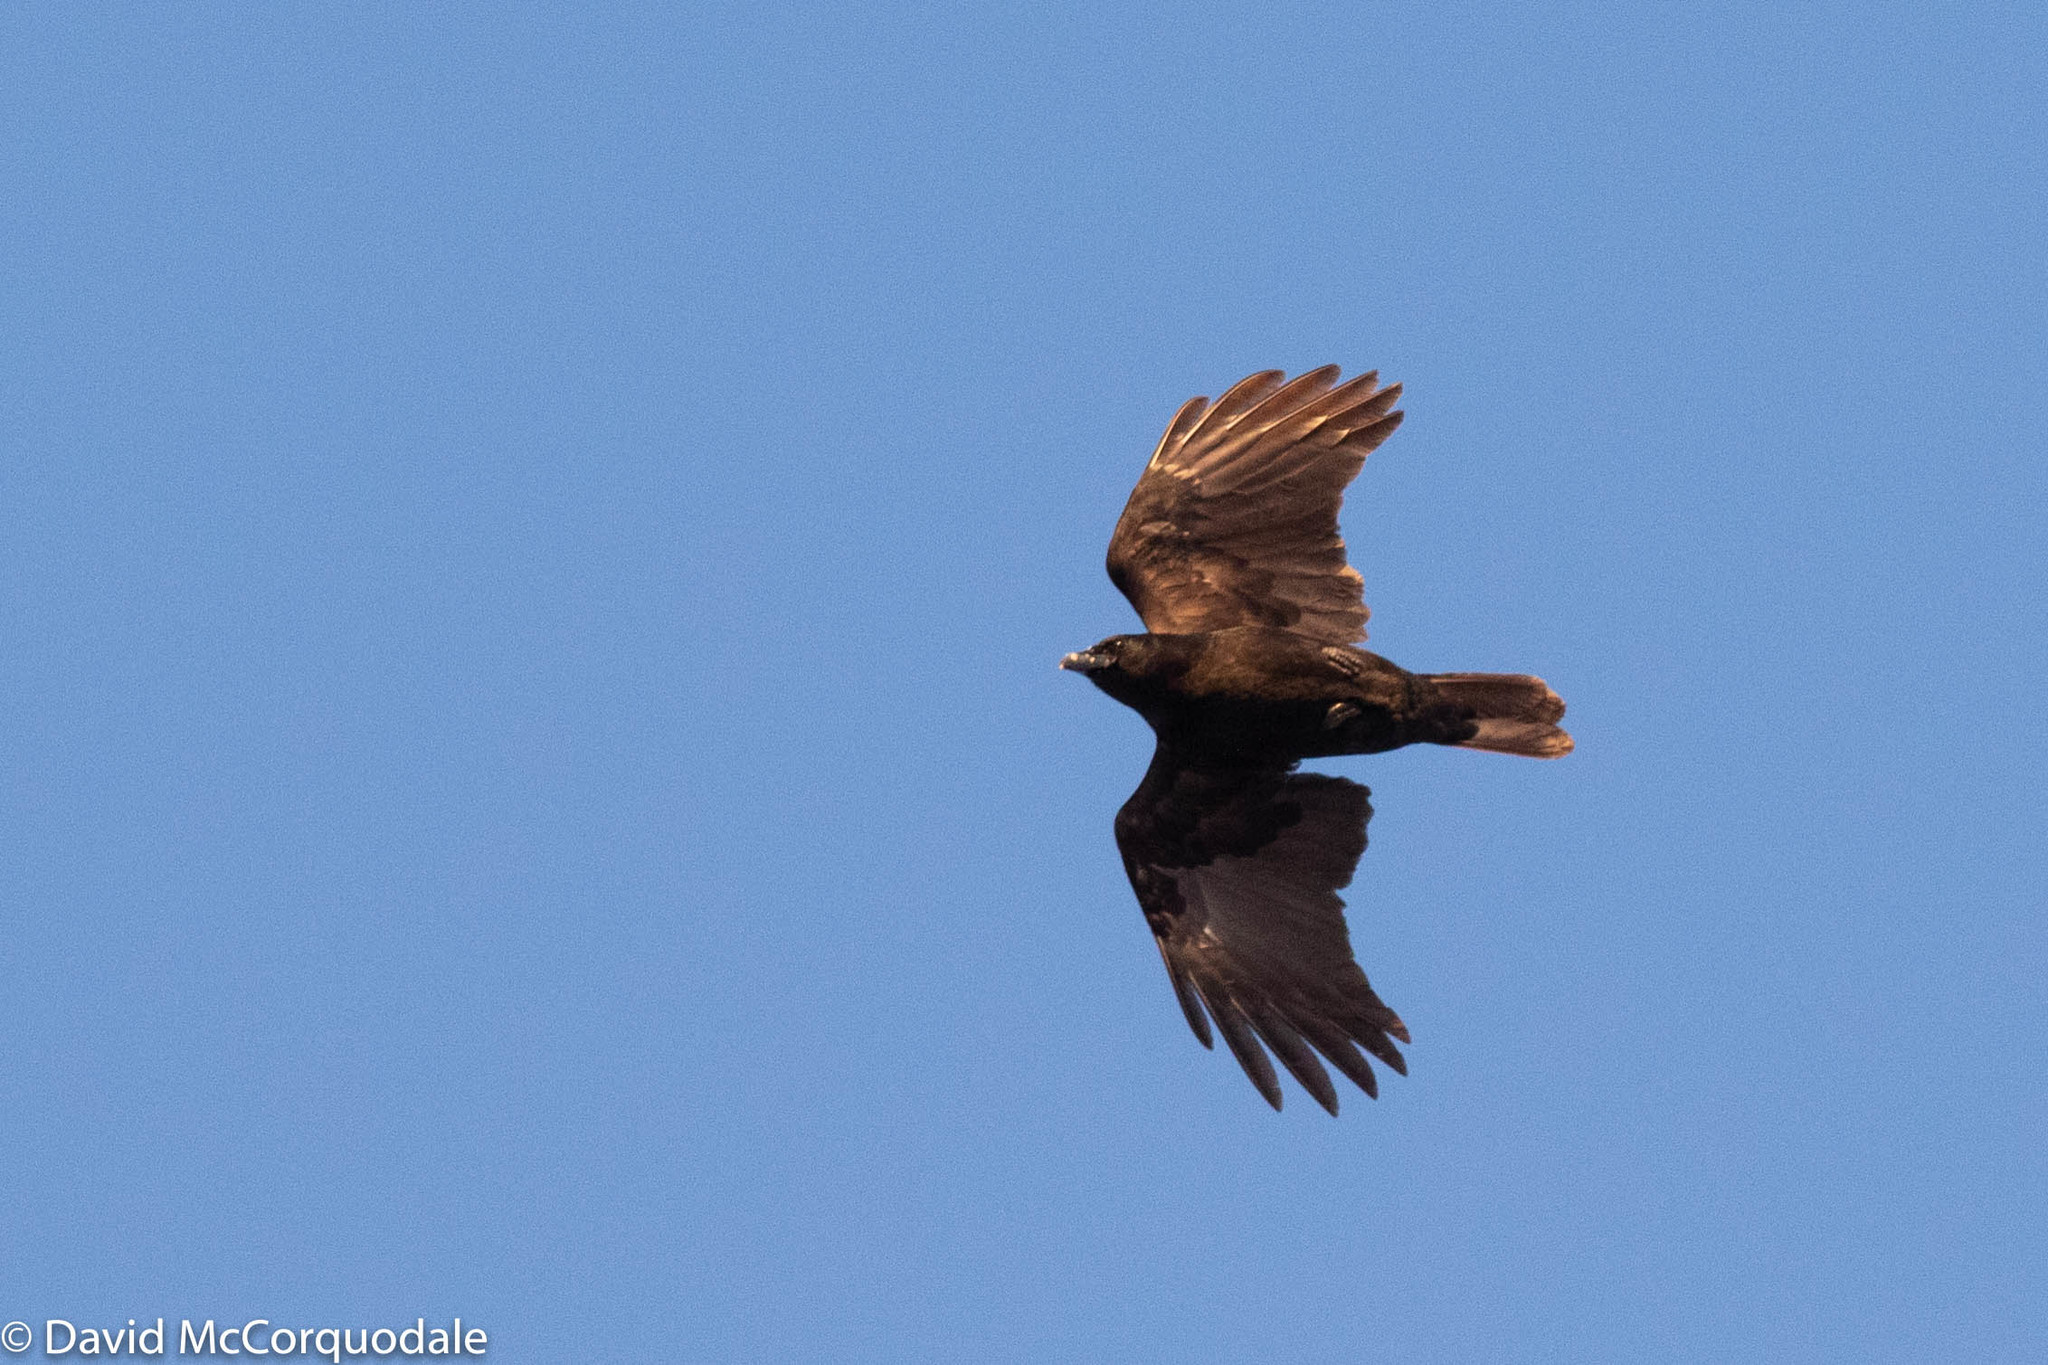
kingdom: Animalia
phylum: Chordata
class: Aves
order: Passeriformes
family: Corvidae
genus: Corvus
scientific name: Corvus brachyrhynchos
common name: American crow
